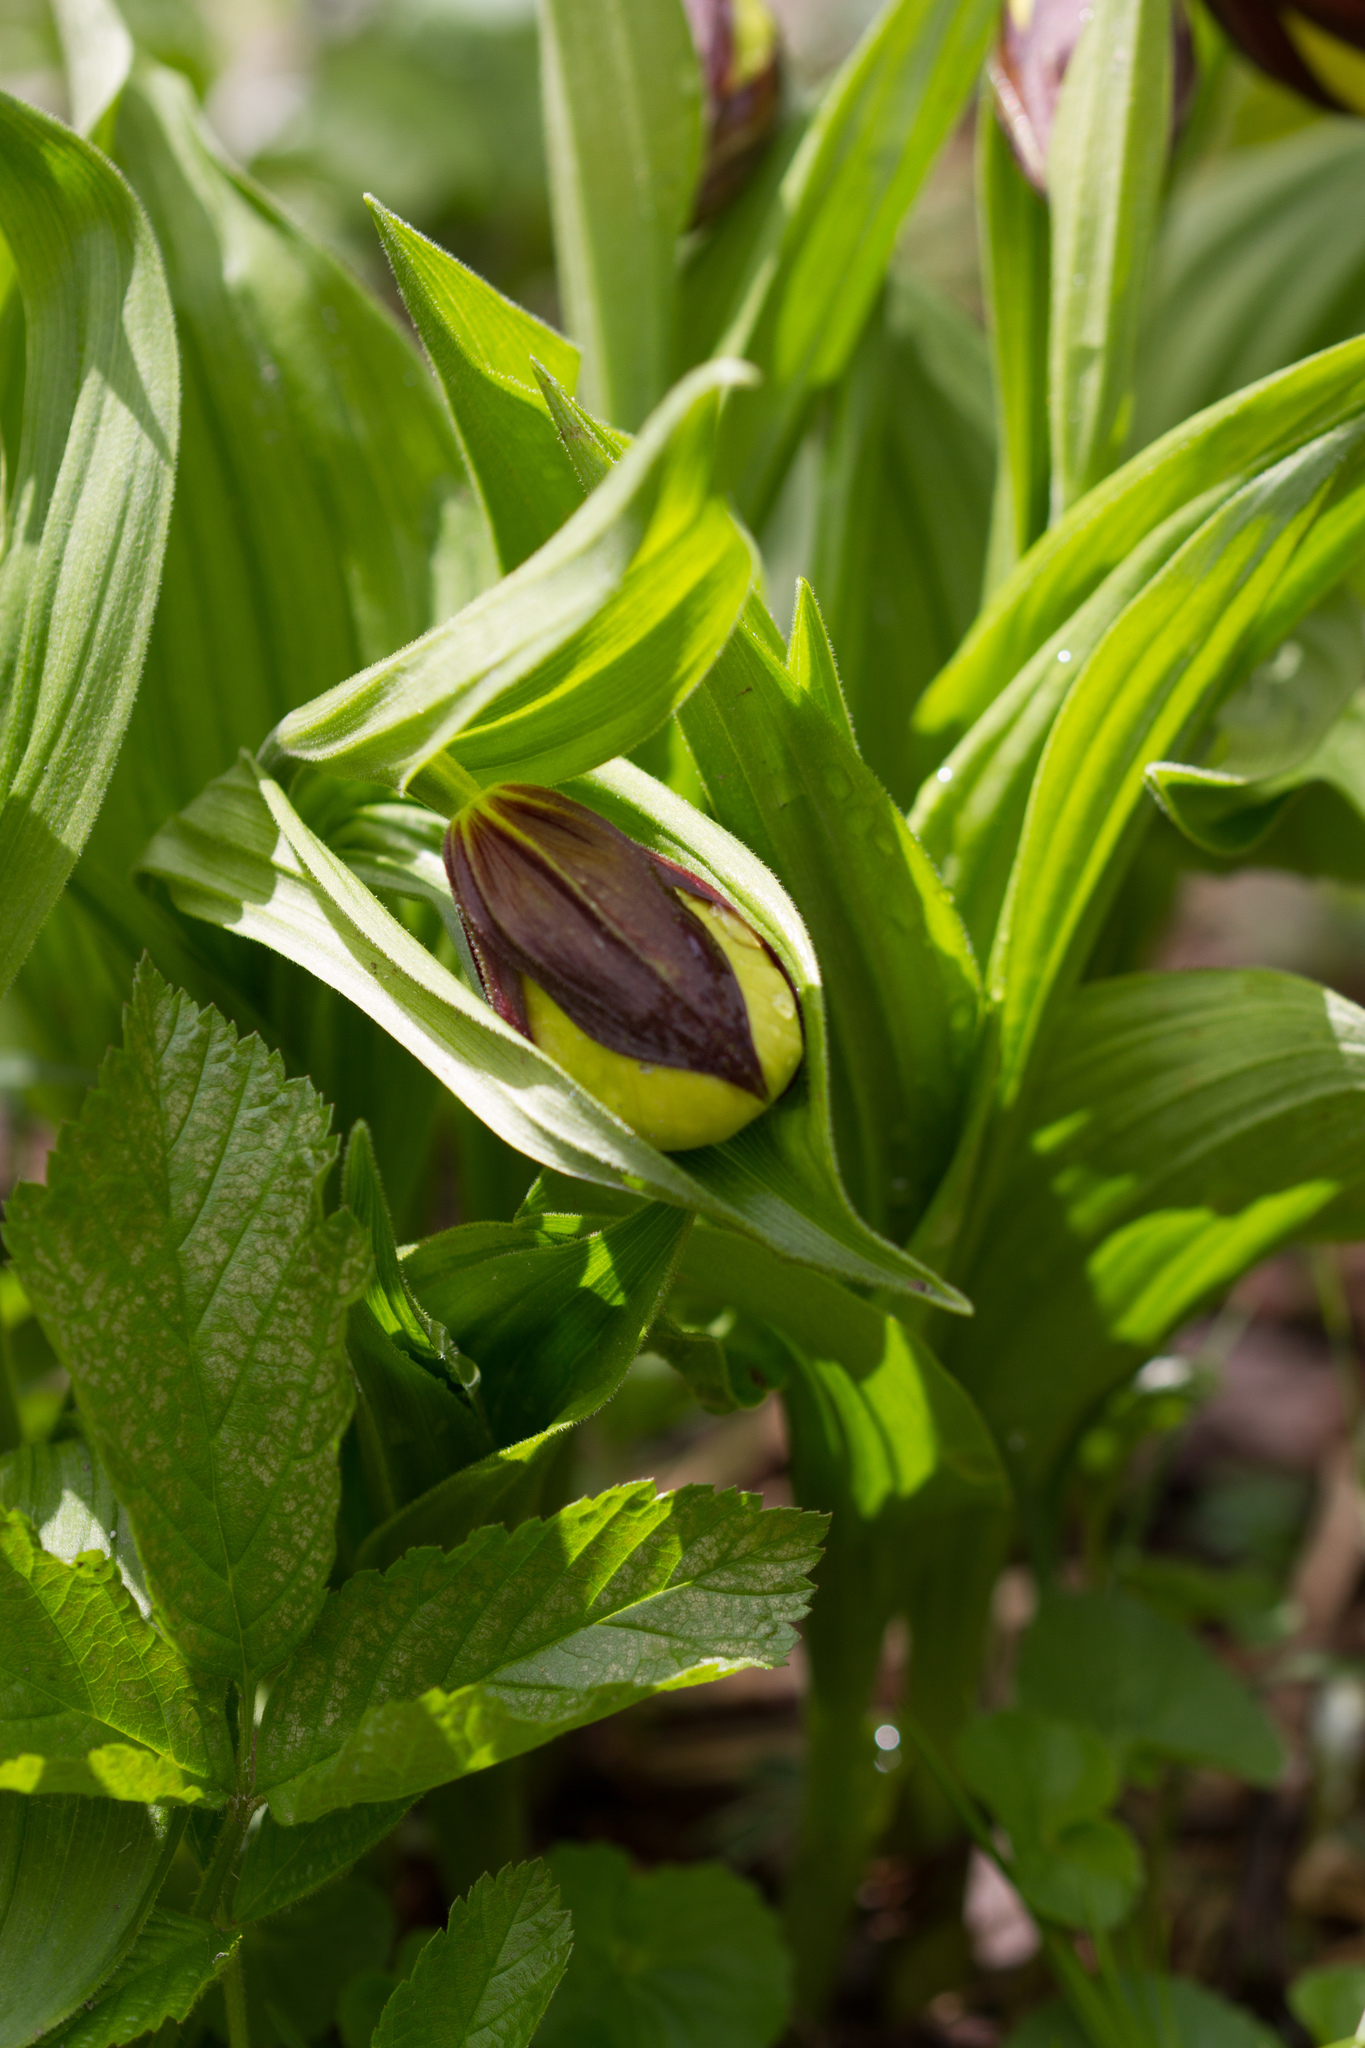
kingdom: Plantae
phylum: Tracheophyta
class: Liliopsida
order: Asparagales
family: Orchidaceae
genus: Cypripedium
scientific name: Cypripedium calceolus
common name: Lady's-slipper
